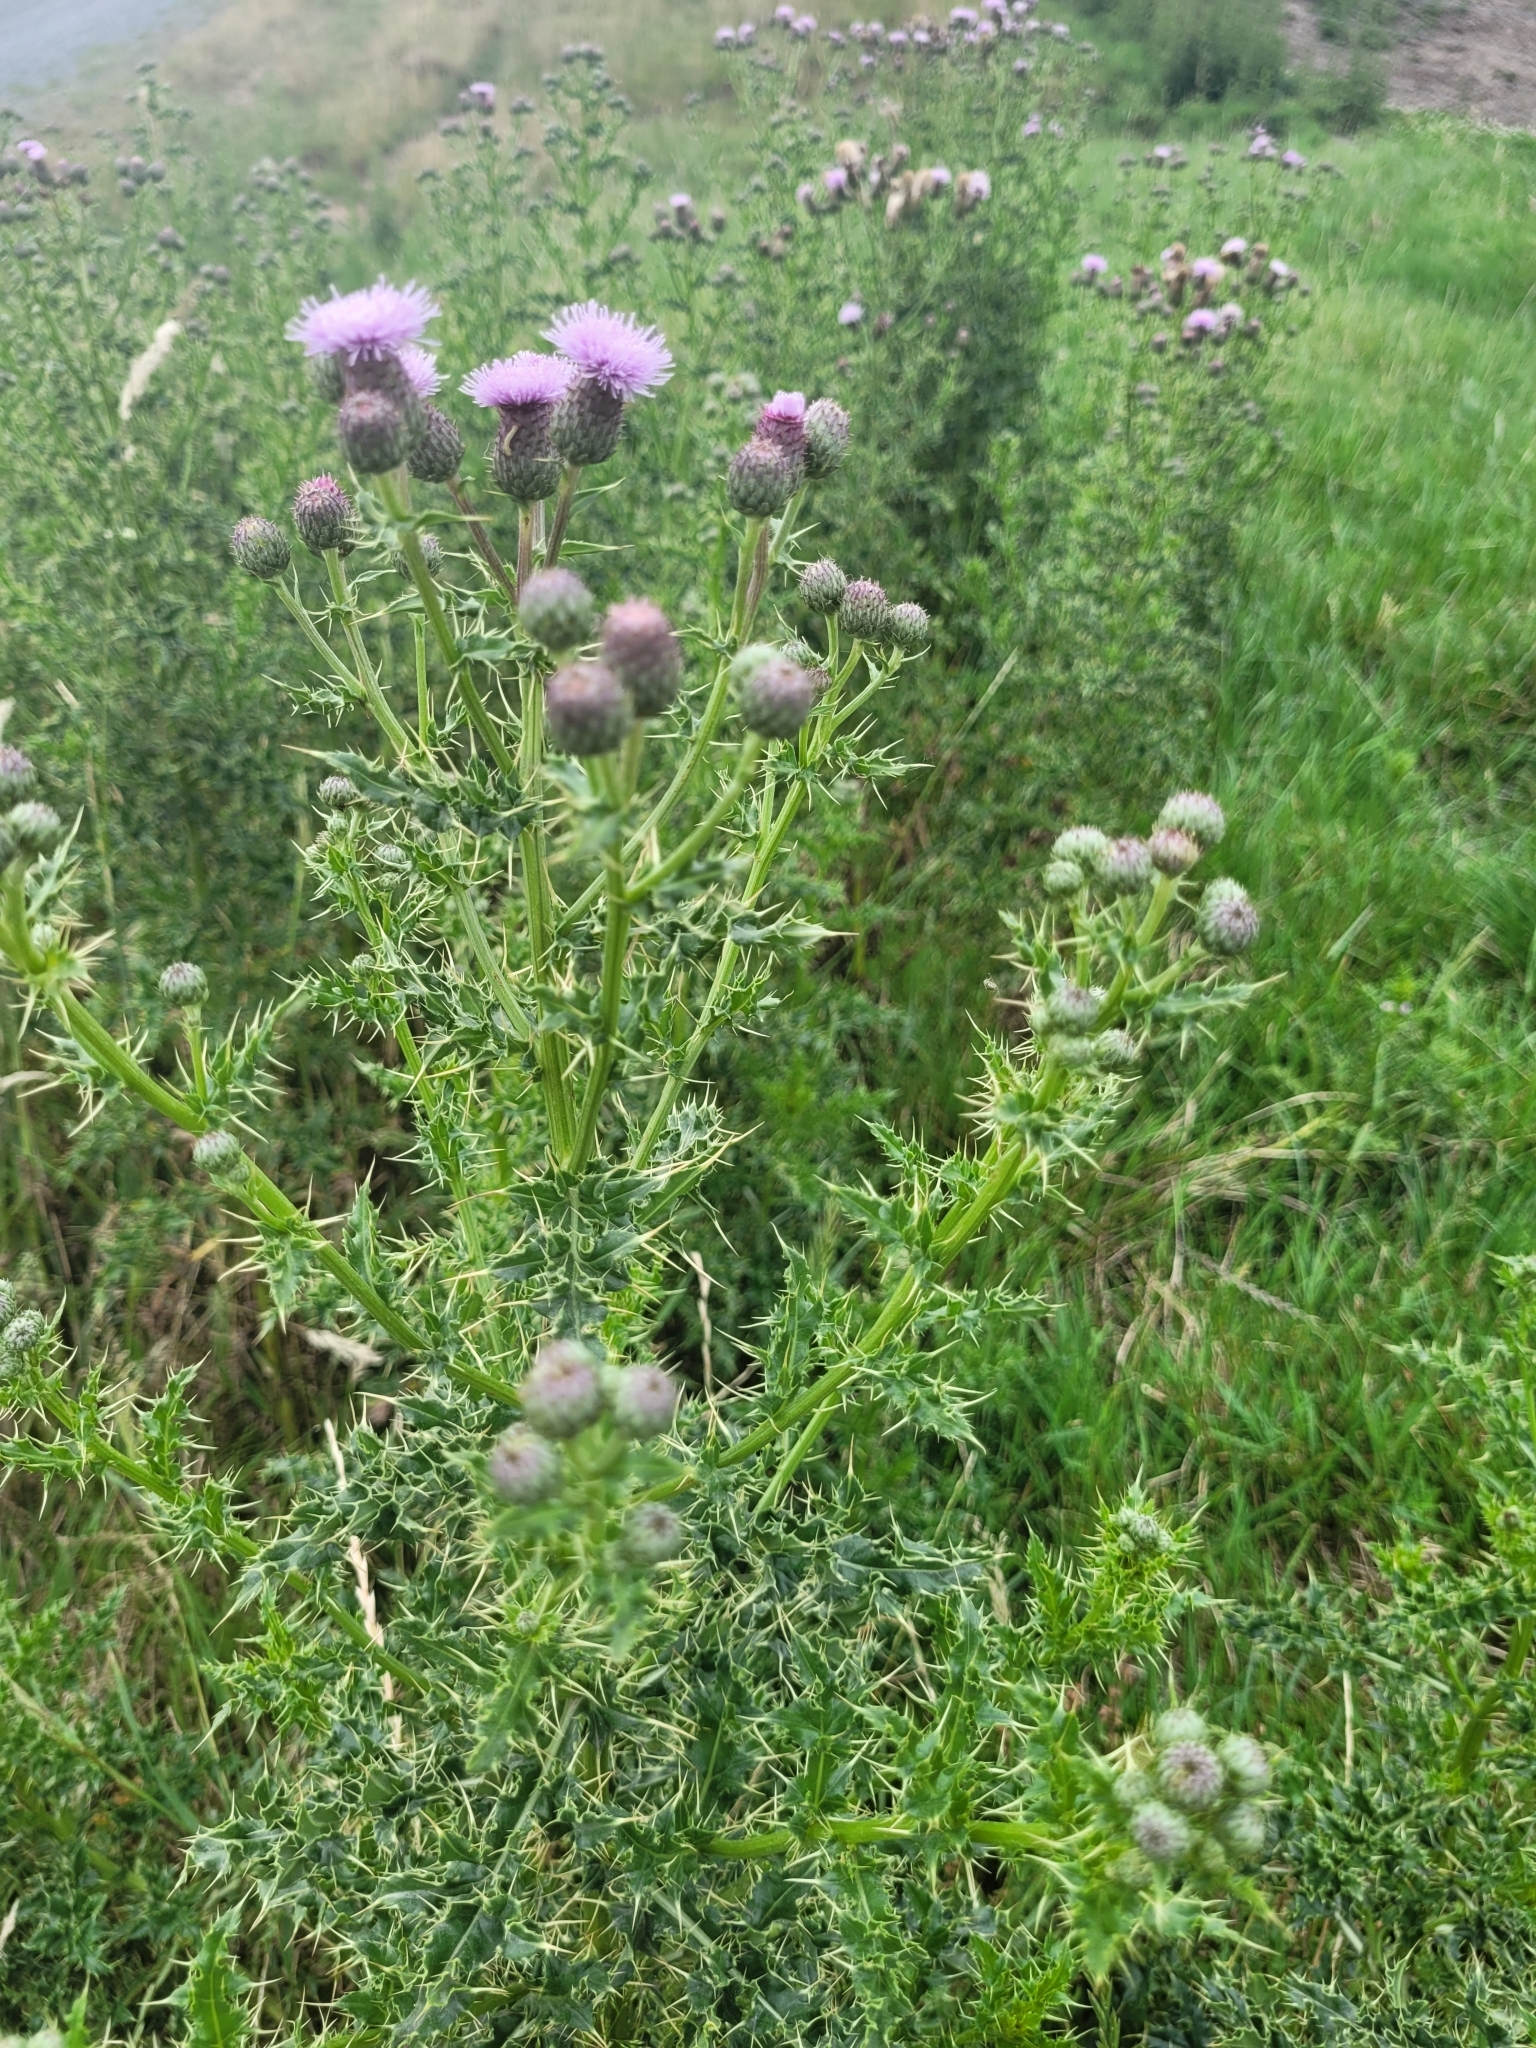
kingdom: Plantae
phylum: Tracheophyta
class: Magnoliopsida
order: Asterales
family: Asteraceae
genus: Cirsium
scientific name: Cirsium arvense
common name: Creeping thistle
